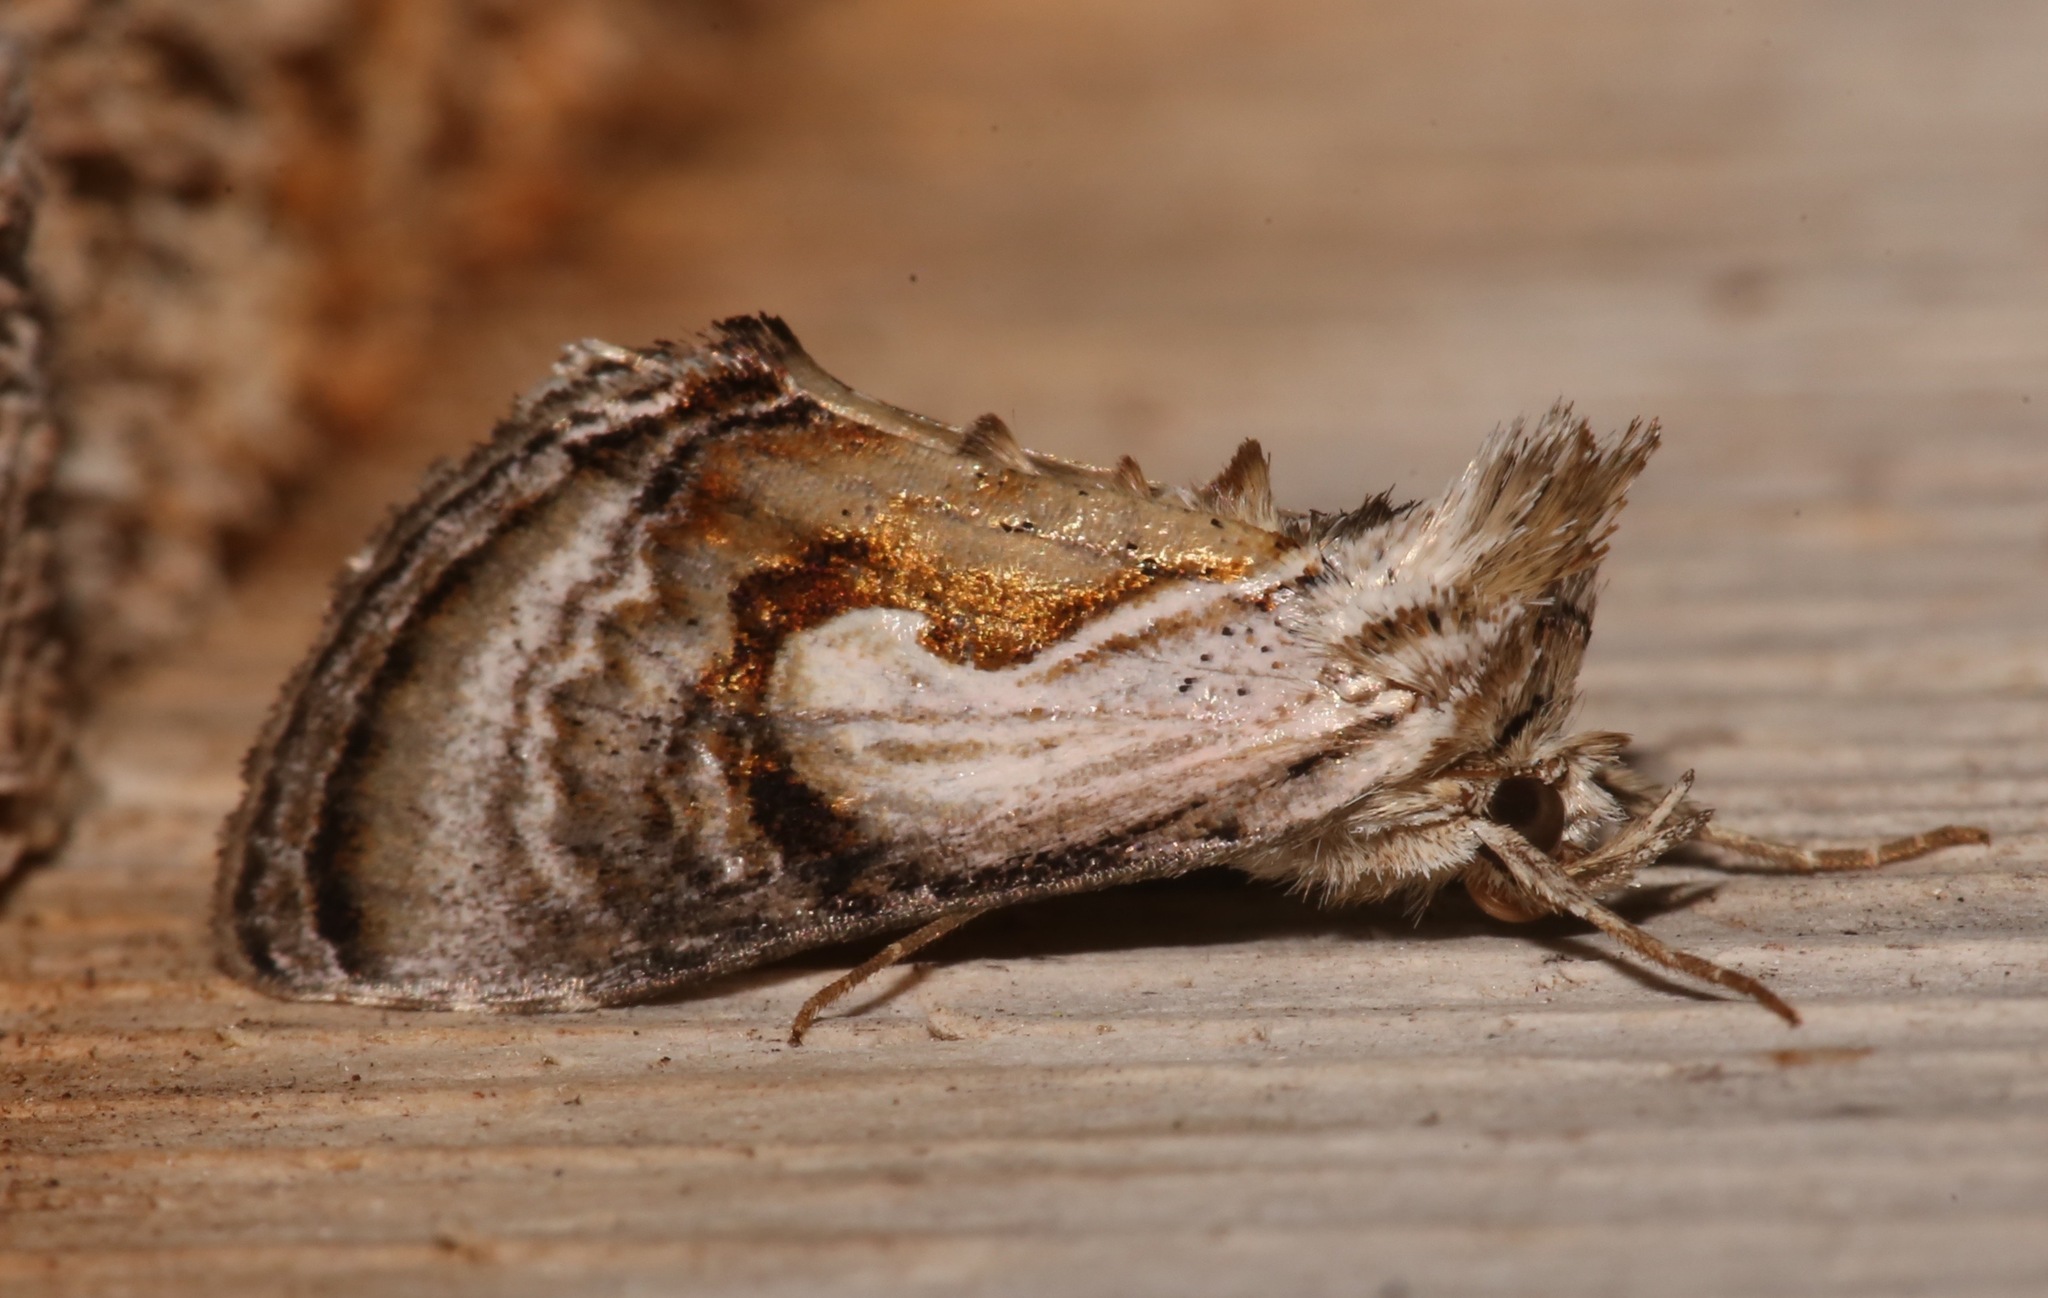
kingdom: Animalia
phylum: Arthropoda
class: Insecta
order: Lepidoptera
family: Noctuidae
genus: Chrysanympha
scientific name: Chrysanympha formosa
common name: Formosa looper moth
